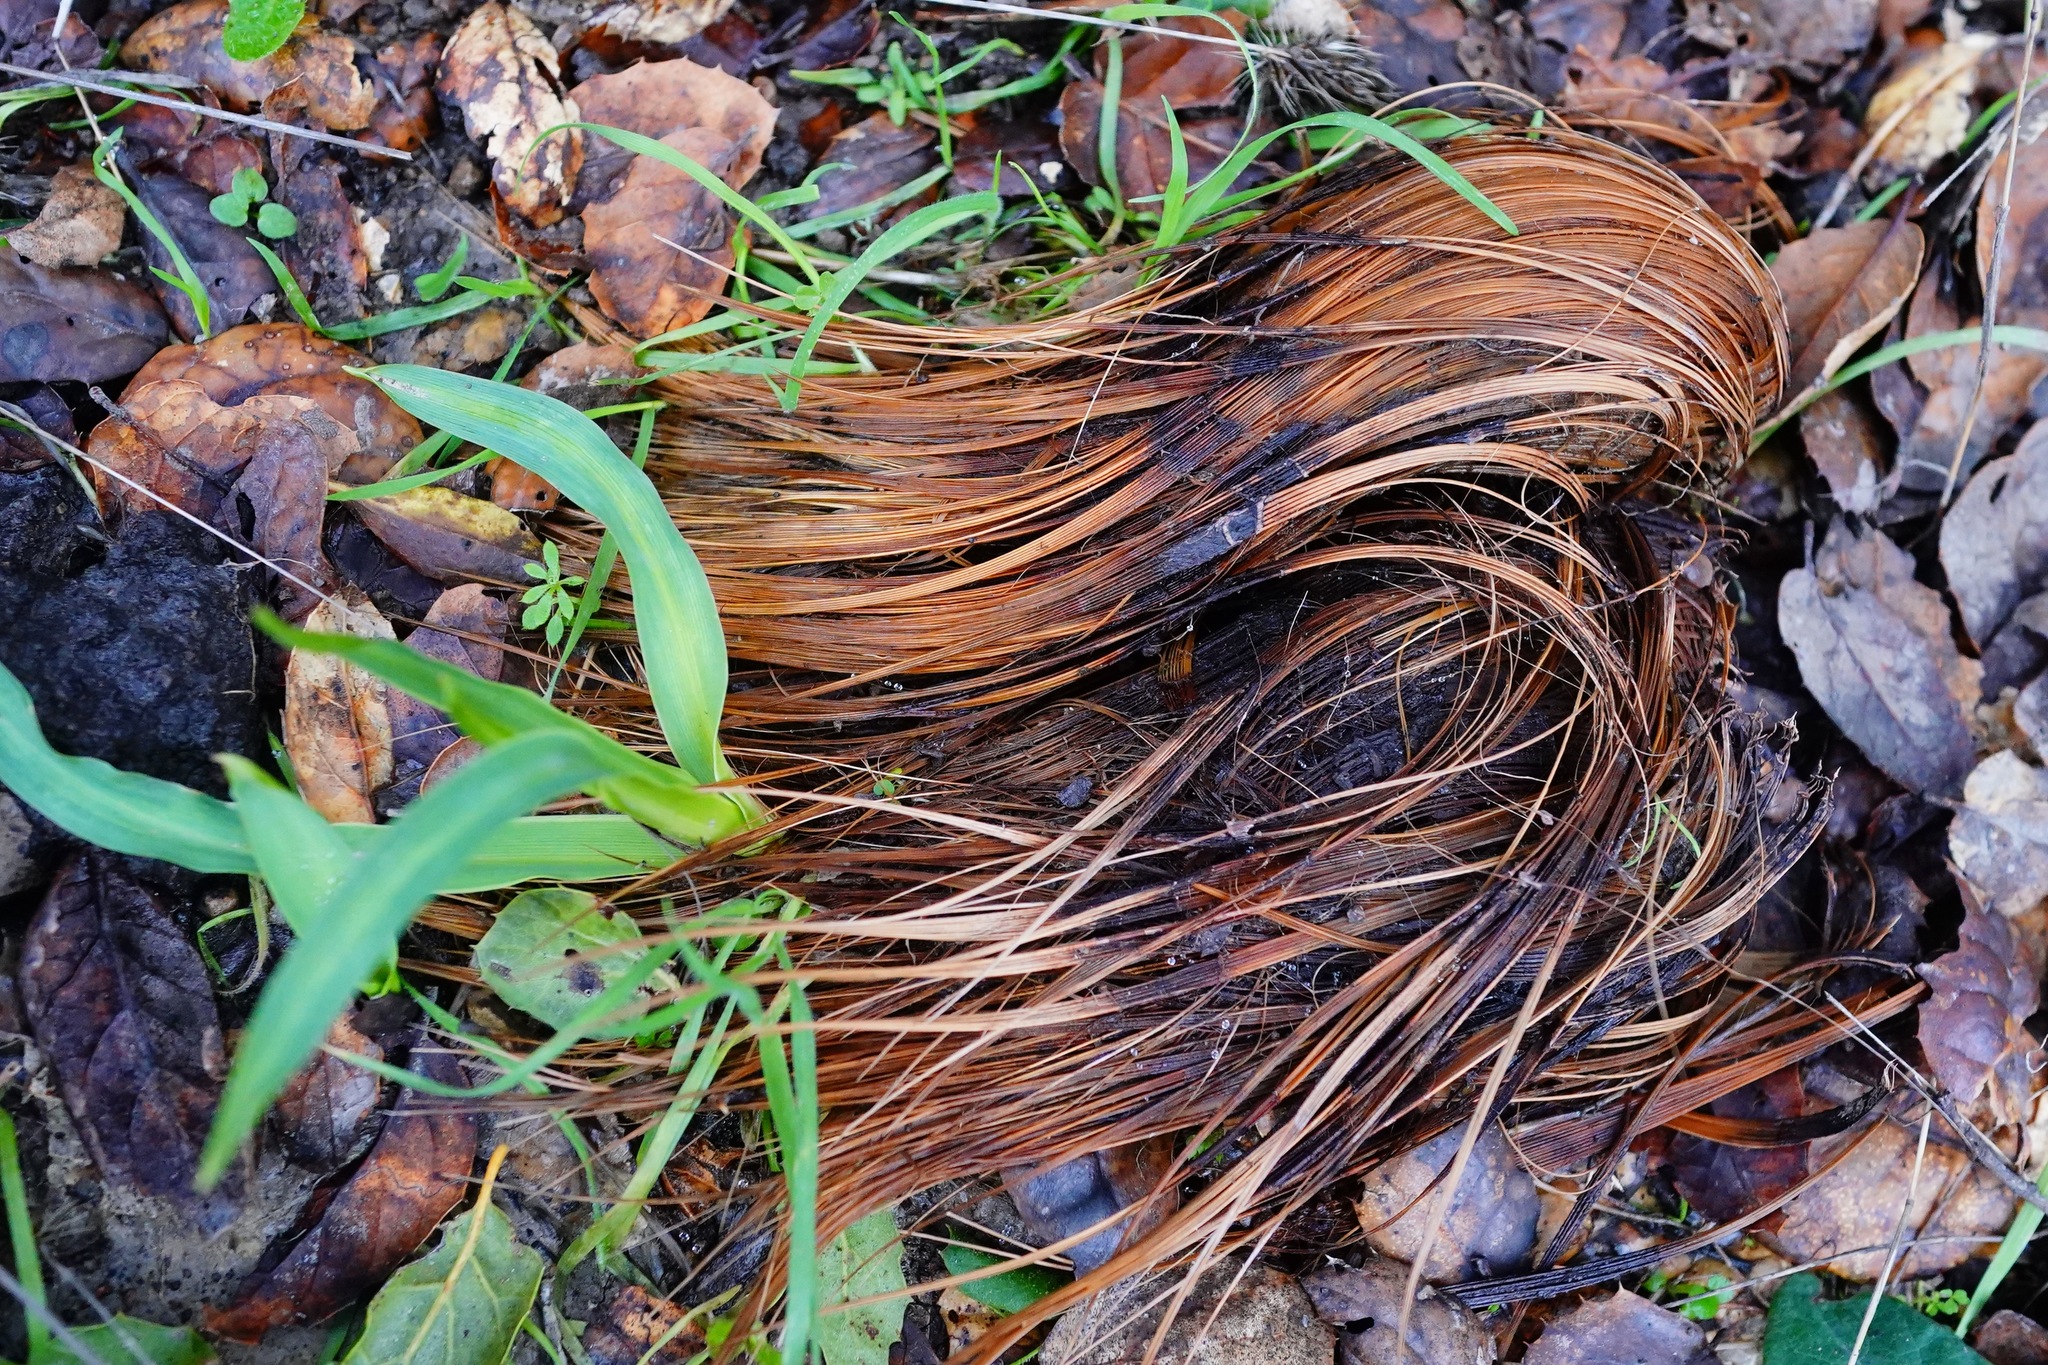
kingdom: Plantae
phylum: Tracheophyta
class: Liliopsida
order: Asparagales
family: Asparagaceae
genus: Chlorogalum
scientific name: Chlorogalum pomeridianum
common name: Amole
